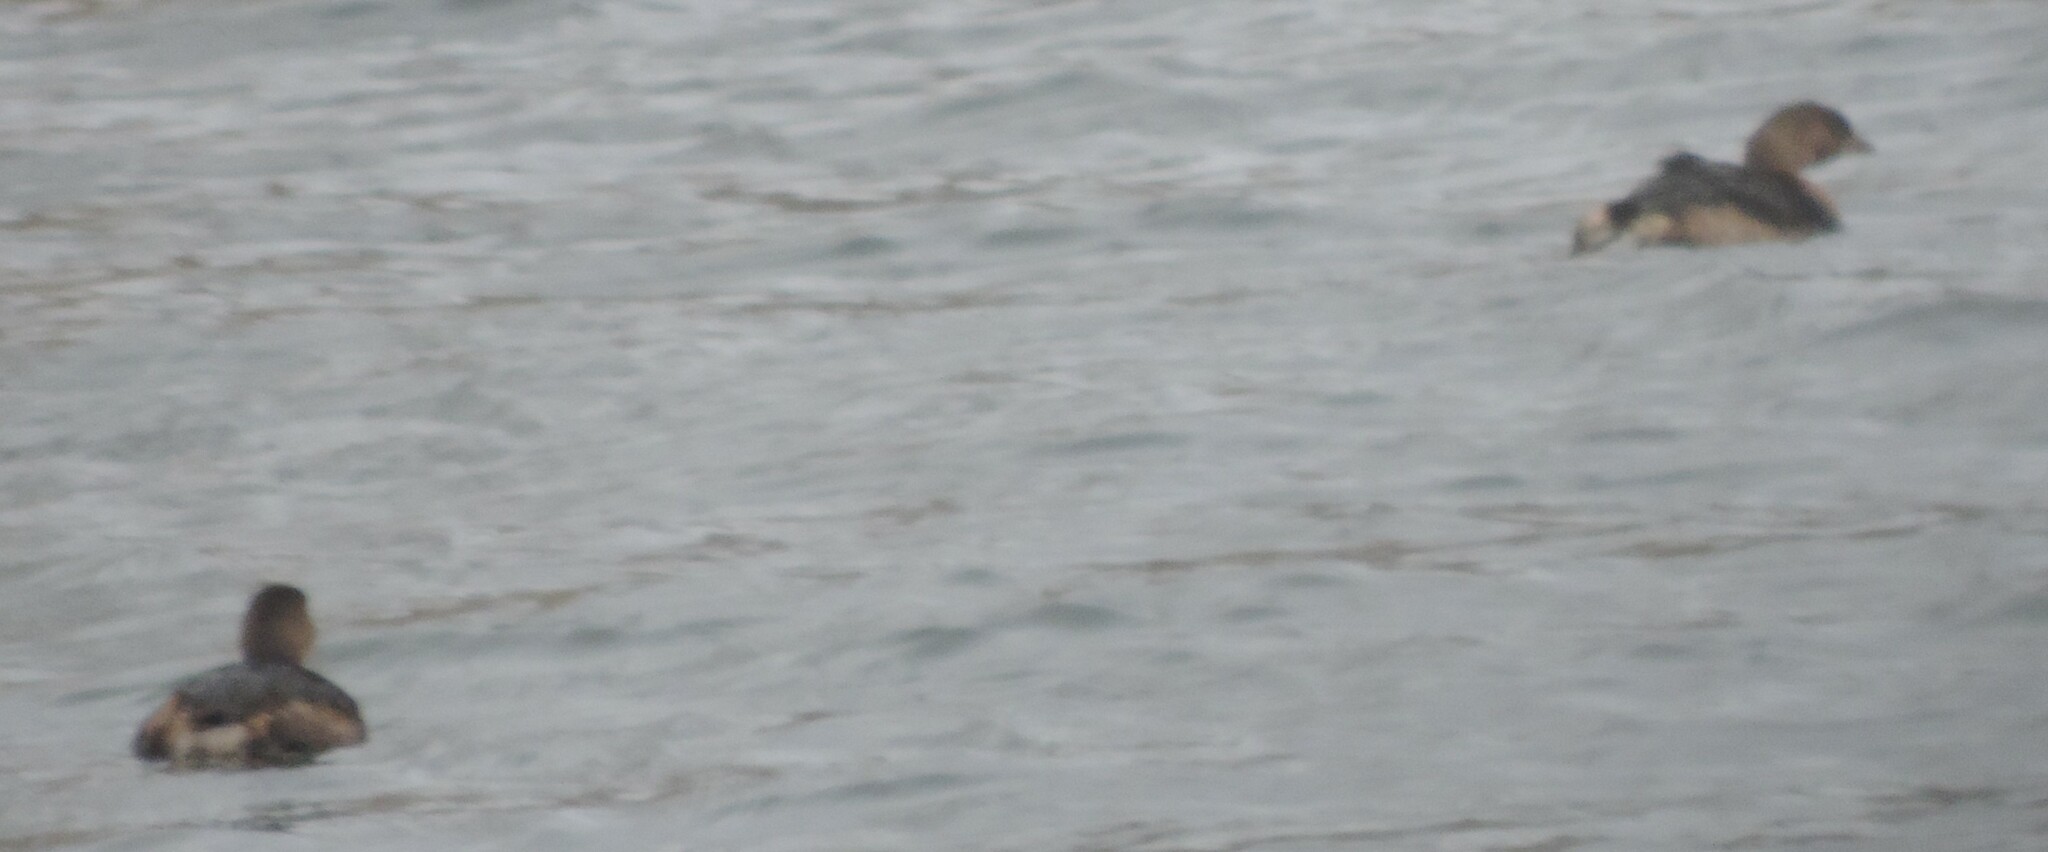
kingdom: Animalia
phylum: Chordata
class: Aves
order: Podicipediformes
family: Podicipedidae
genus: Podilymbus
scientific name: Podilymbus podiceps
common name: Pied-billed grebe
